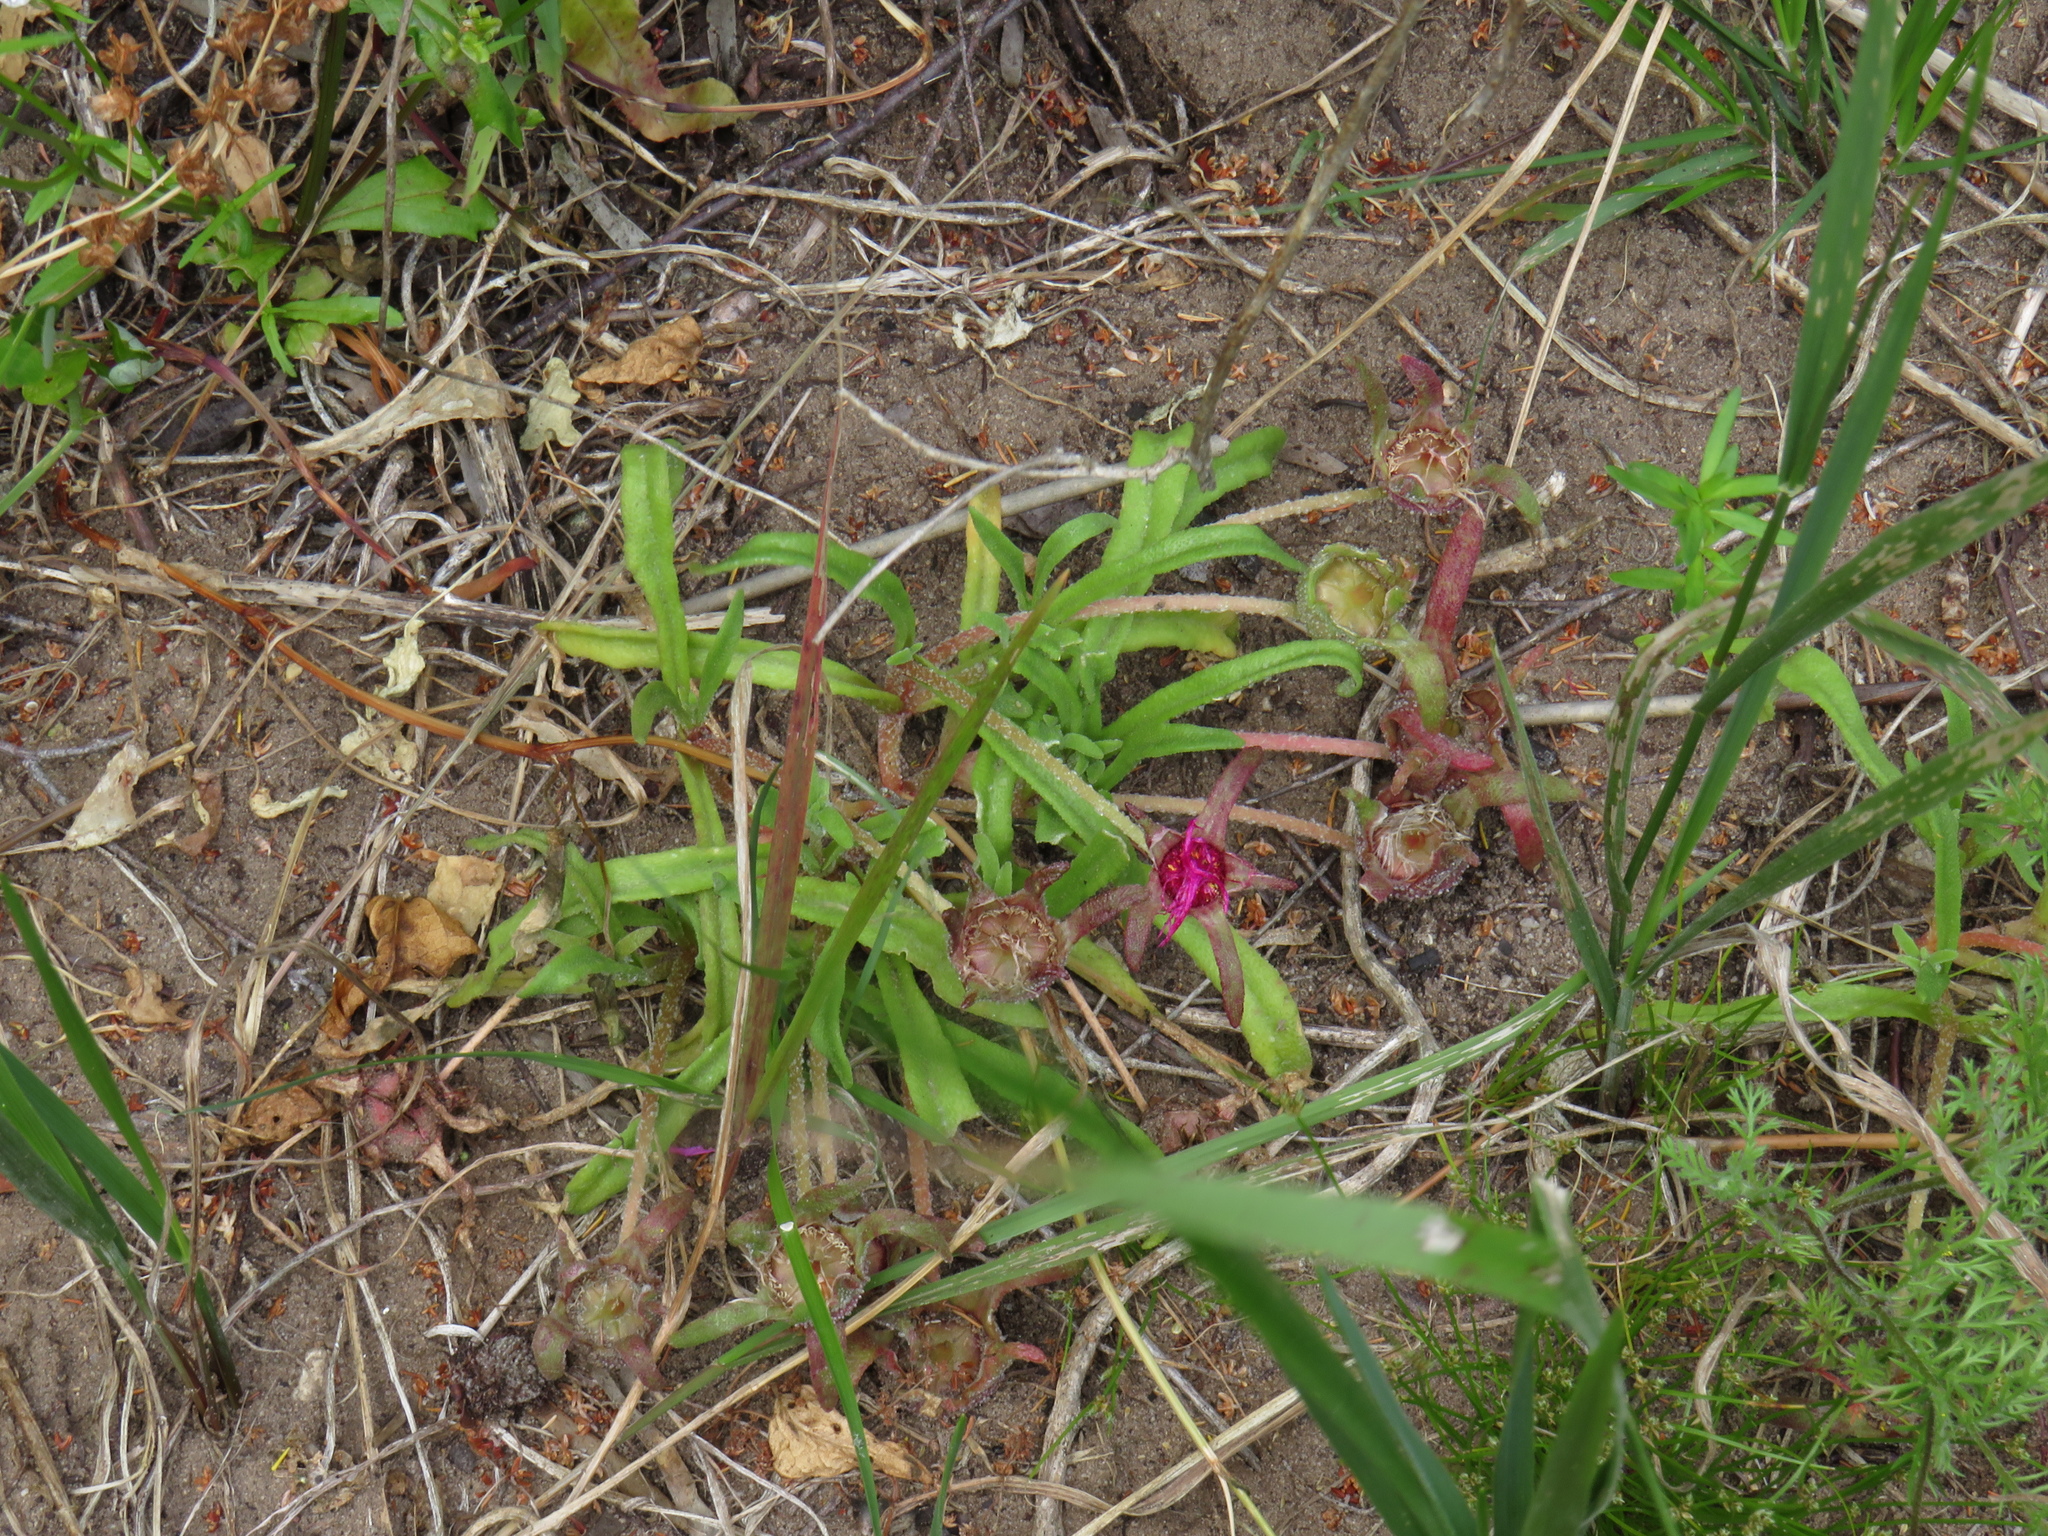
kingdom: Plantae
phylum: Tracheophyta
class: Magnoliopsida
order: Caryophyllales
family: Aizoaceae
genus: Cleretum
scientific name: Cleretum bellidiforme
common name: Livingstone daisy
